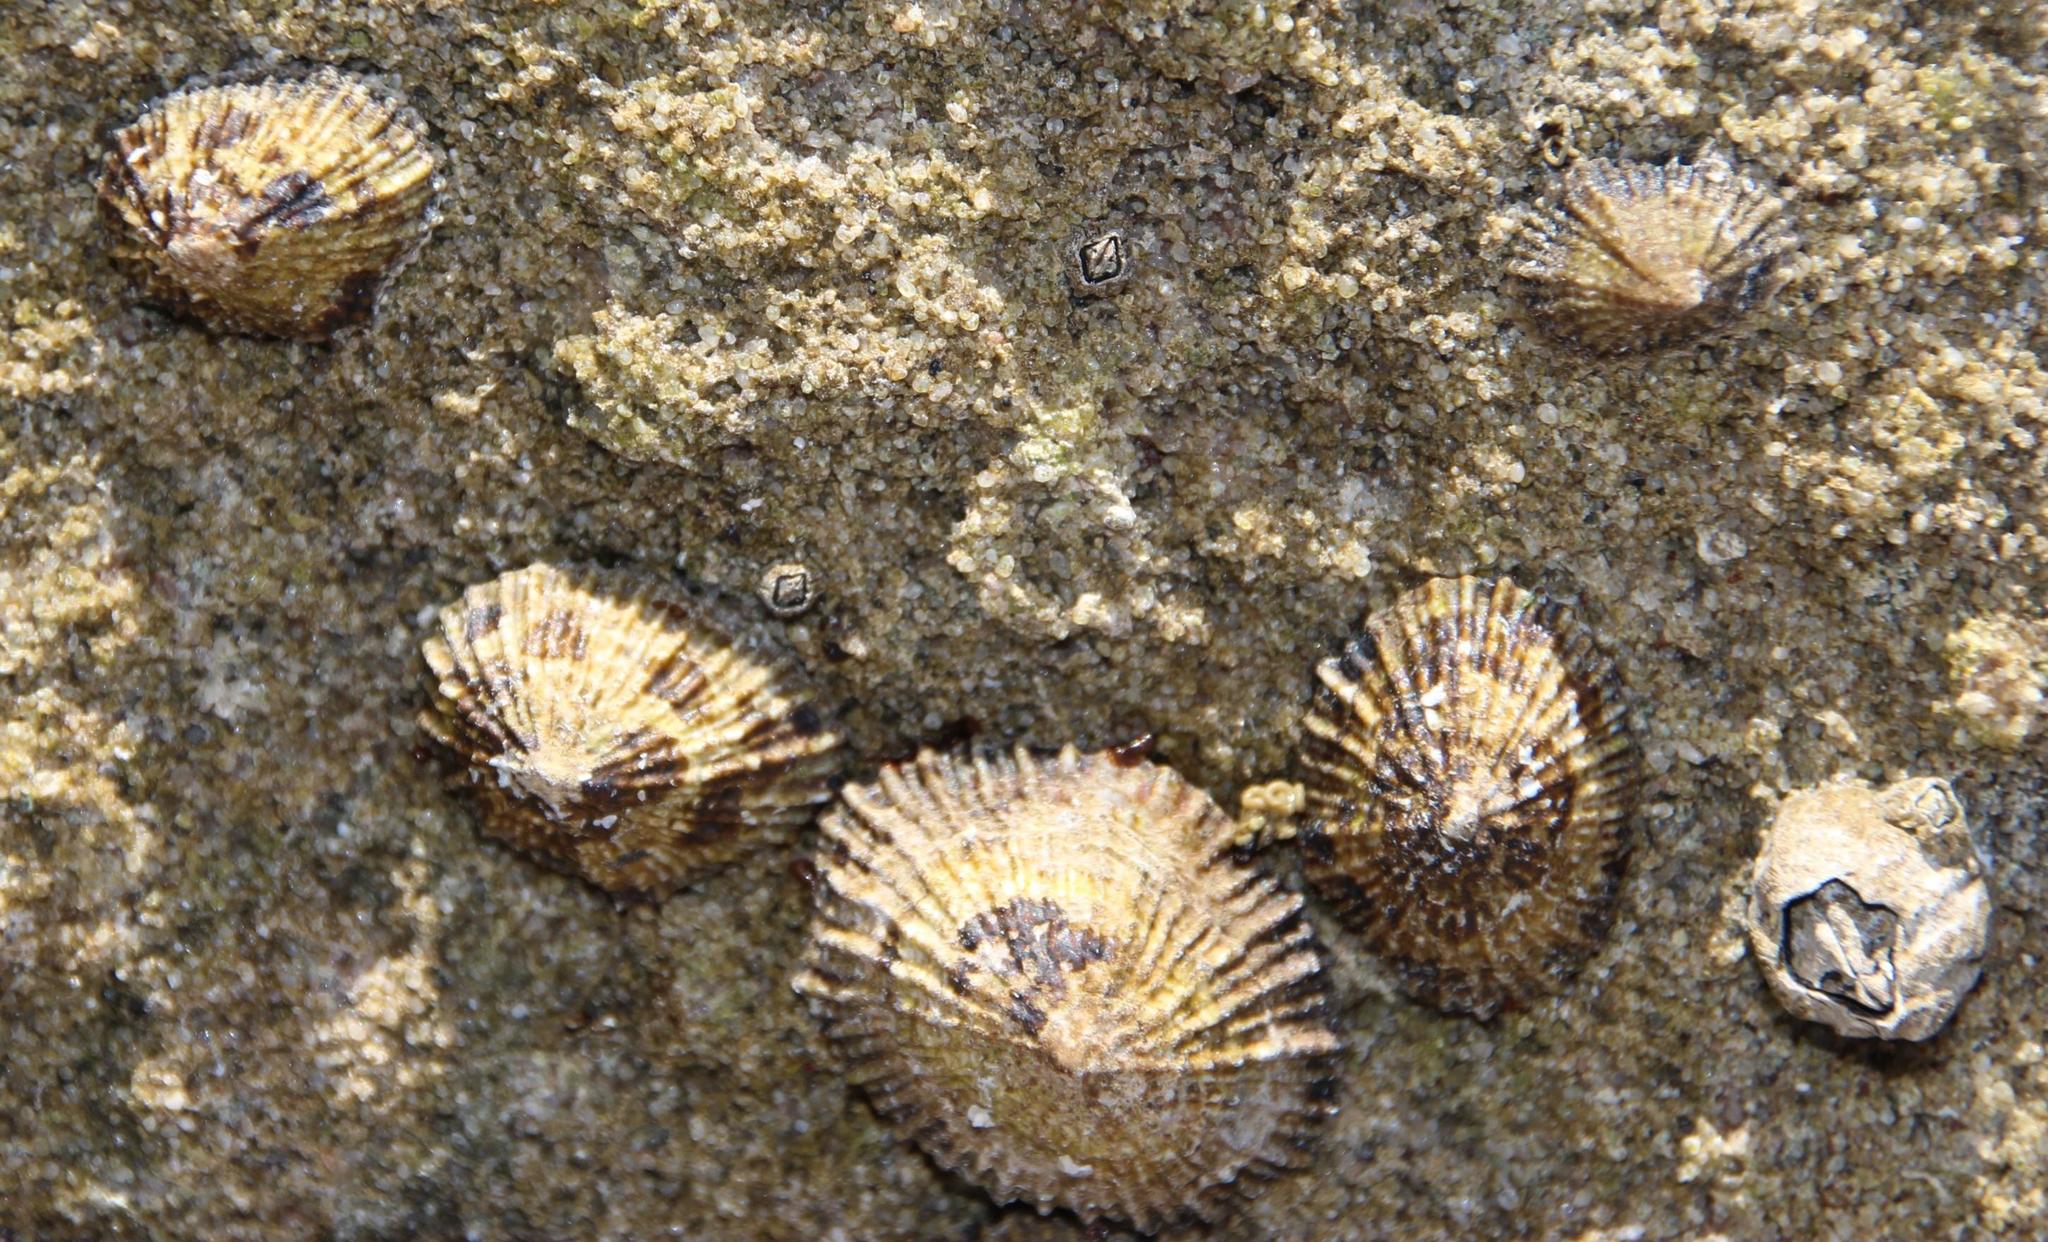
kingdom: Animalia
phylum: Mollusca
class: Gastropoda
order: Siphonariida
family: Siphonariidae
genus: Siphonaria
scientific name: Siphonaria capensis
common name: Cape false limpet
